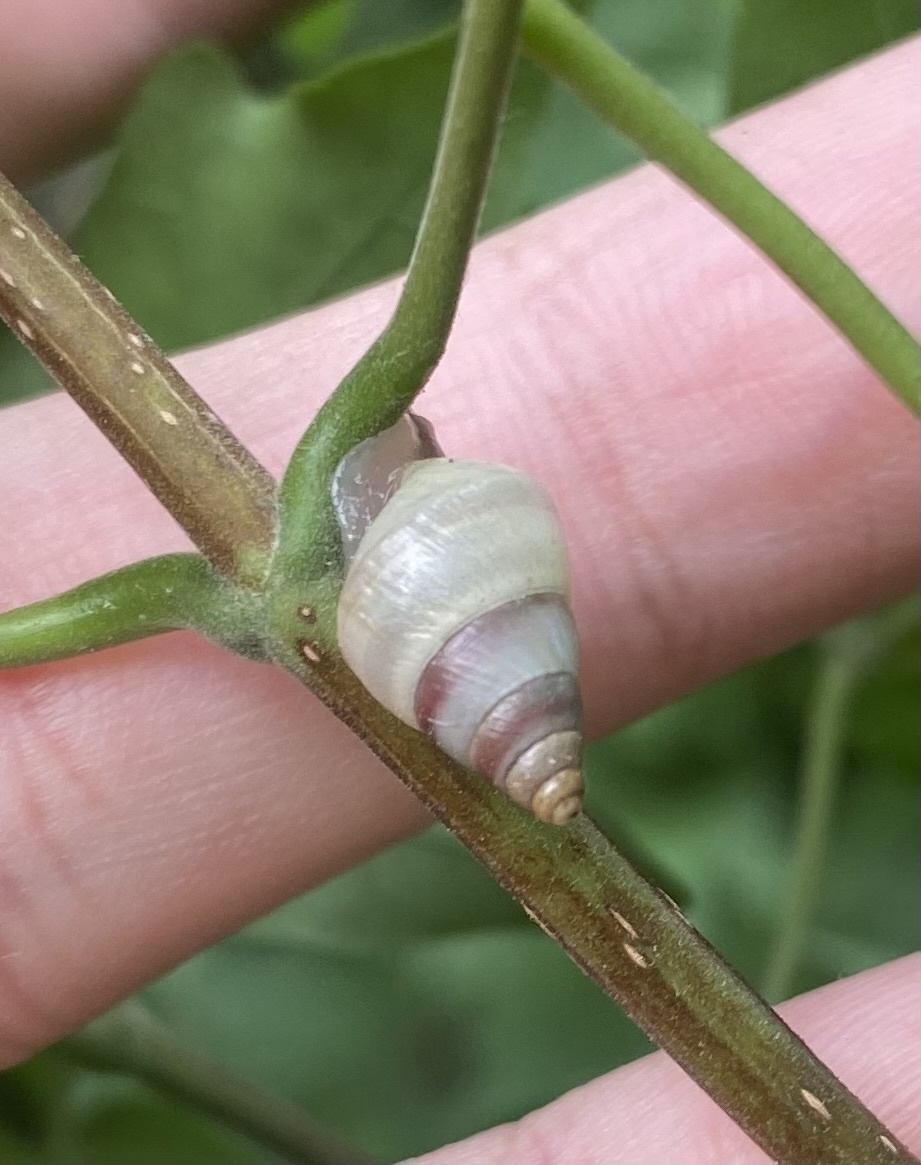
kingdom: Animalia
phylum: Mollusca
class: Gastropoda
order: Stylommatophora
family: Enidae
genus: Caucasicola
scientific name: Caucasicola raddei
